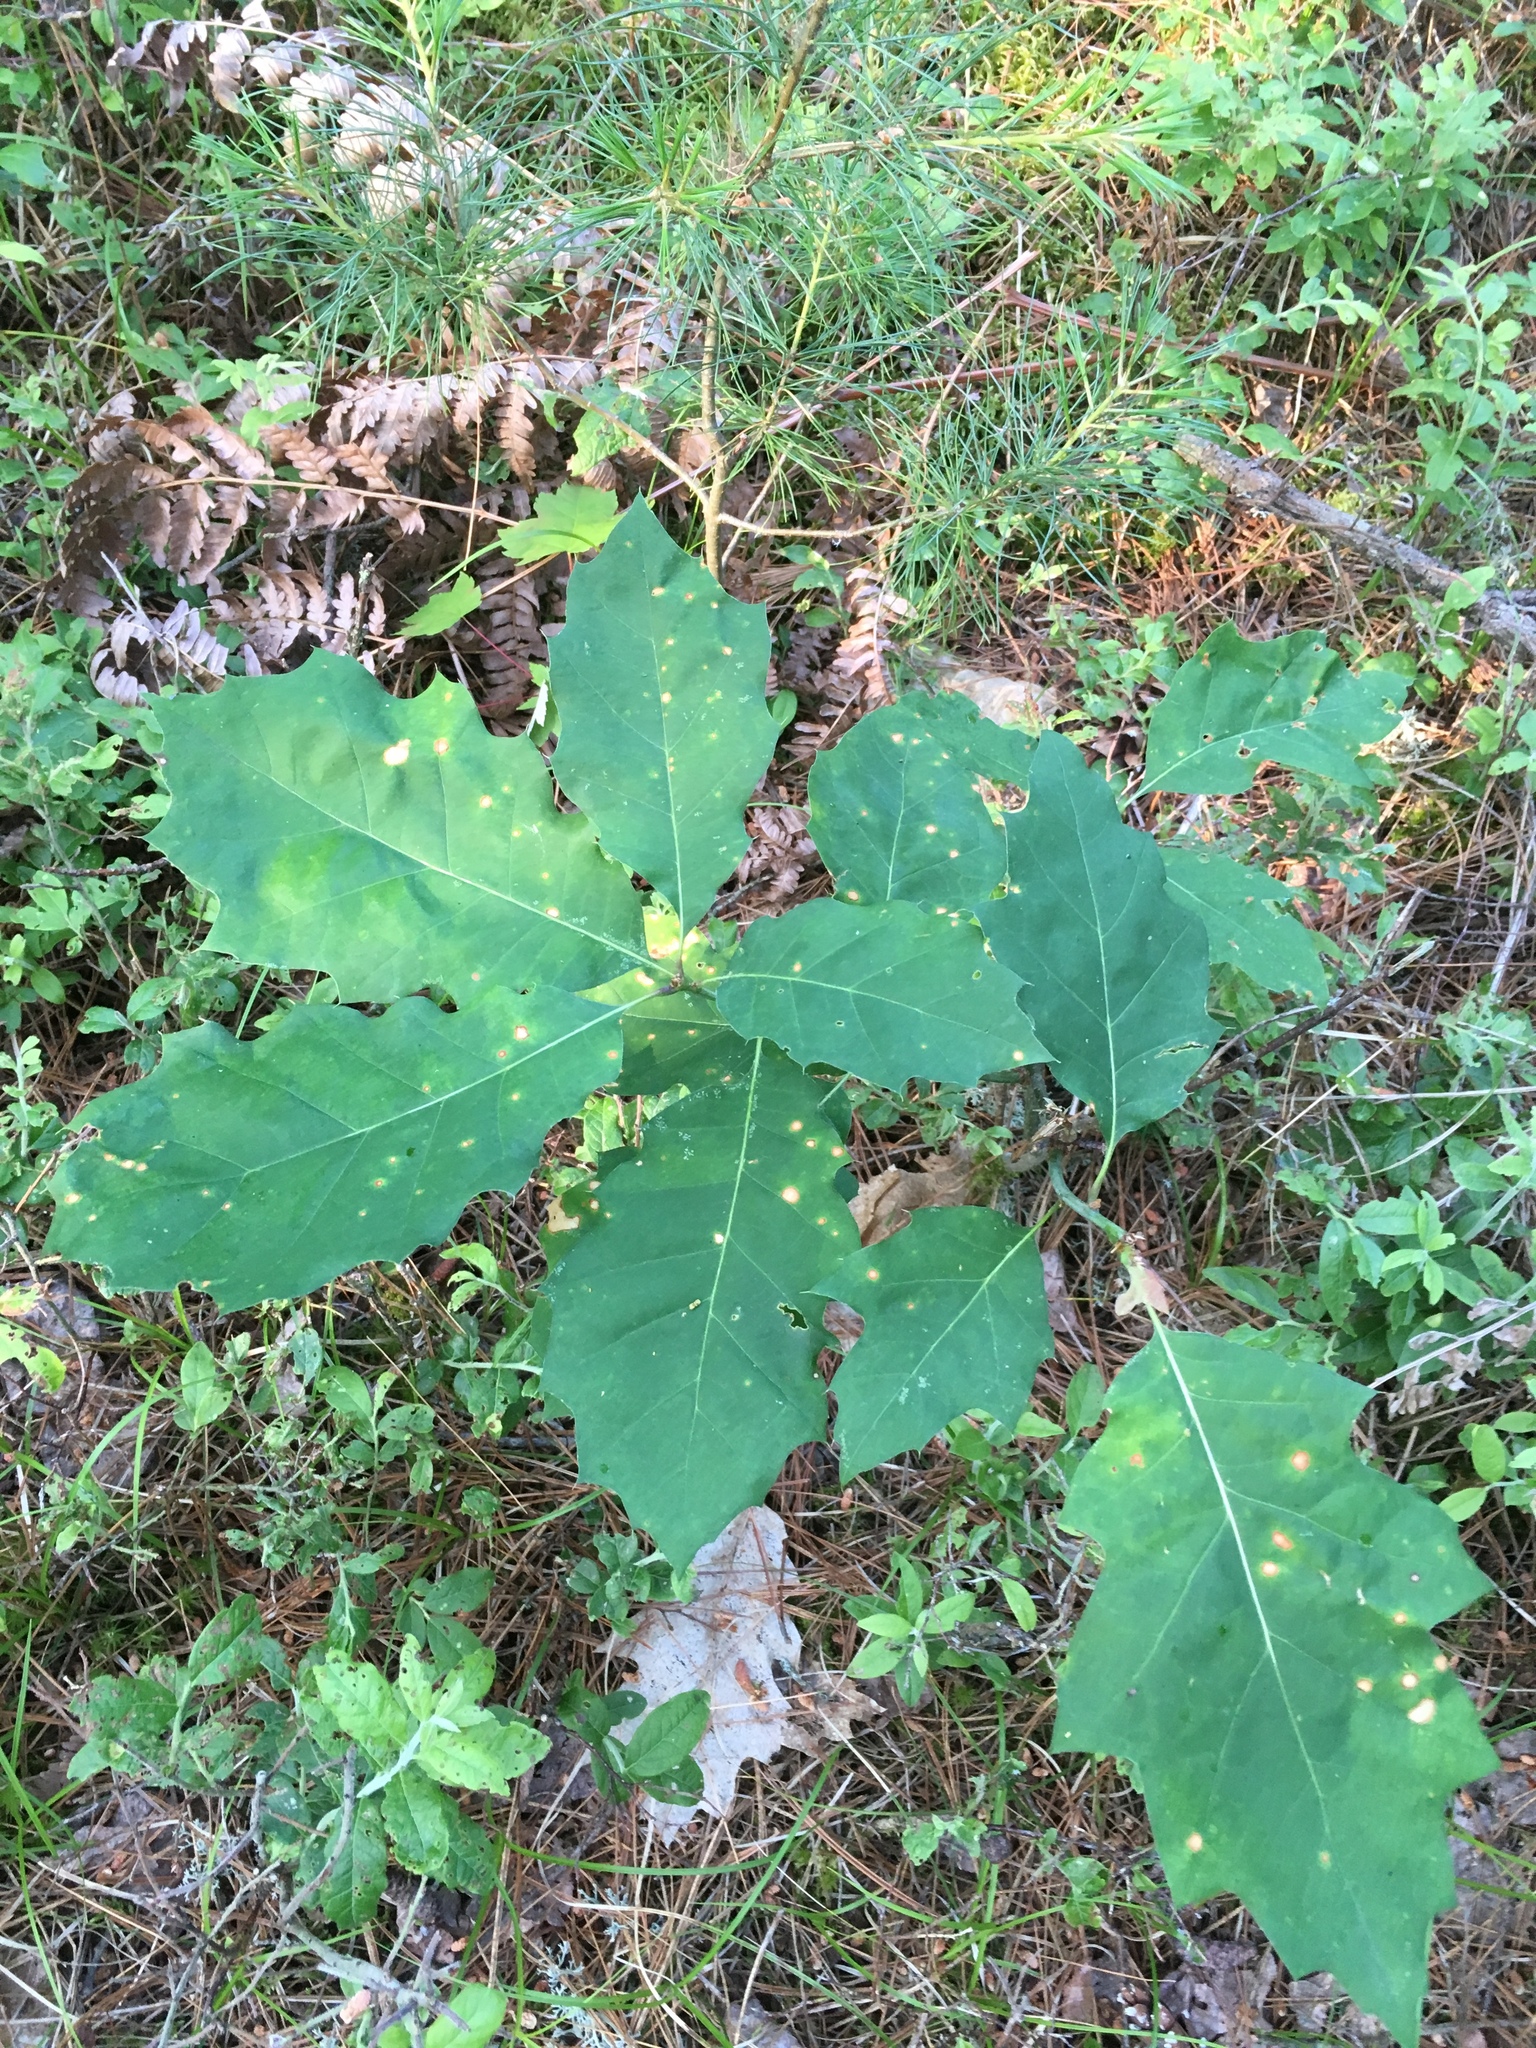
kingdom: Plantae
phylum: Tracheophyta
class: Magnoliopsida
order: Fagales
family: Fagaceae
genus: Quercus
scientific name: Quercus rubra
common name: Red oak
